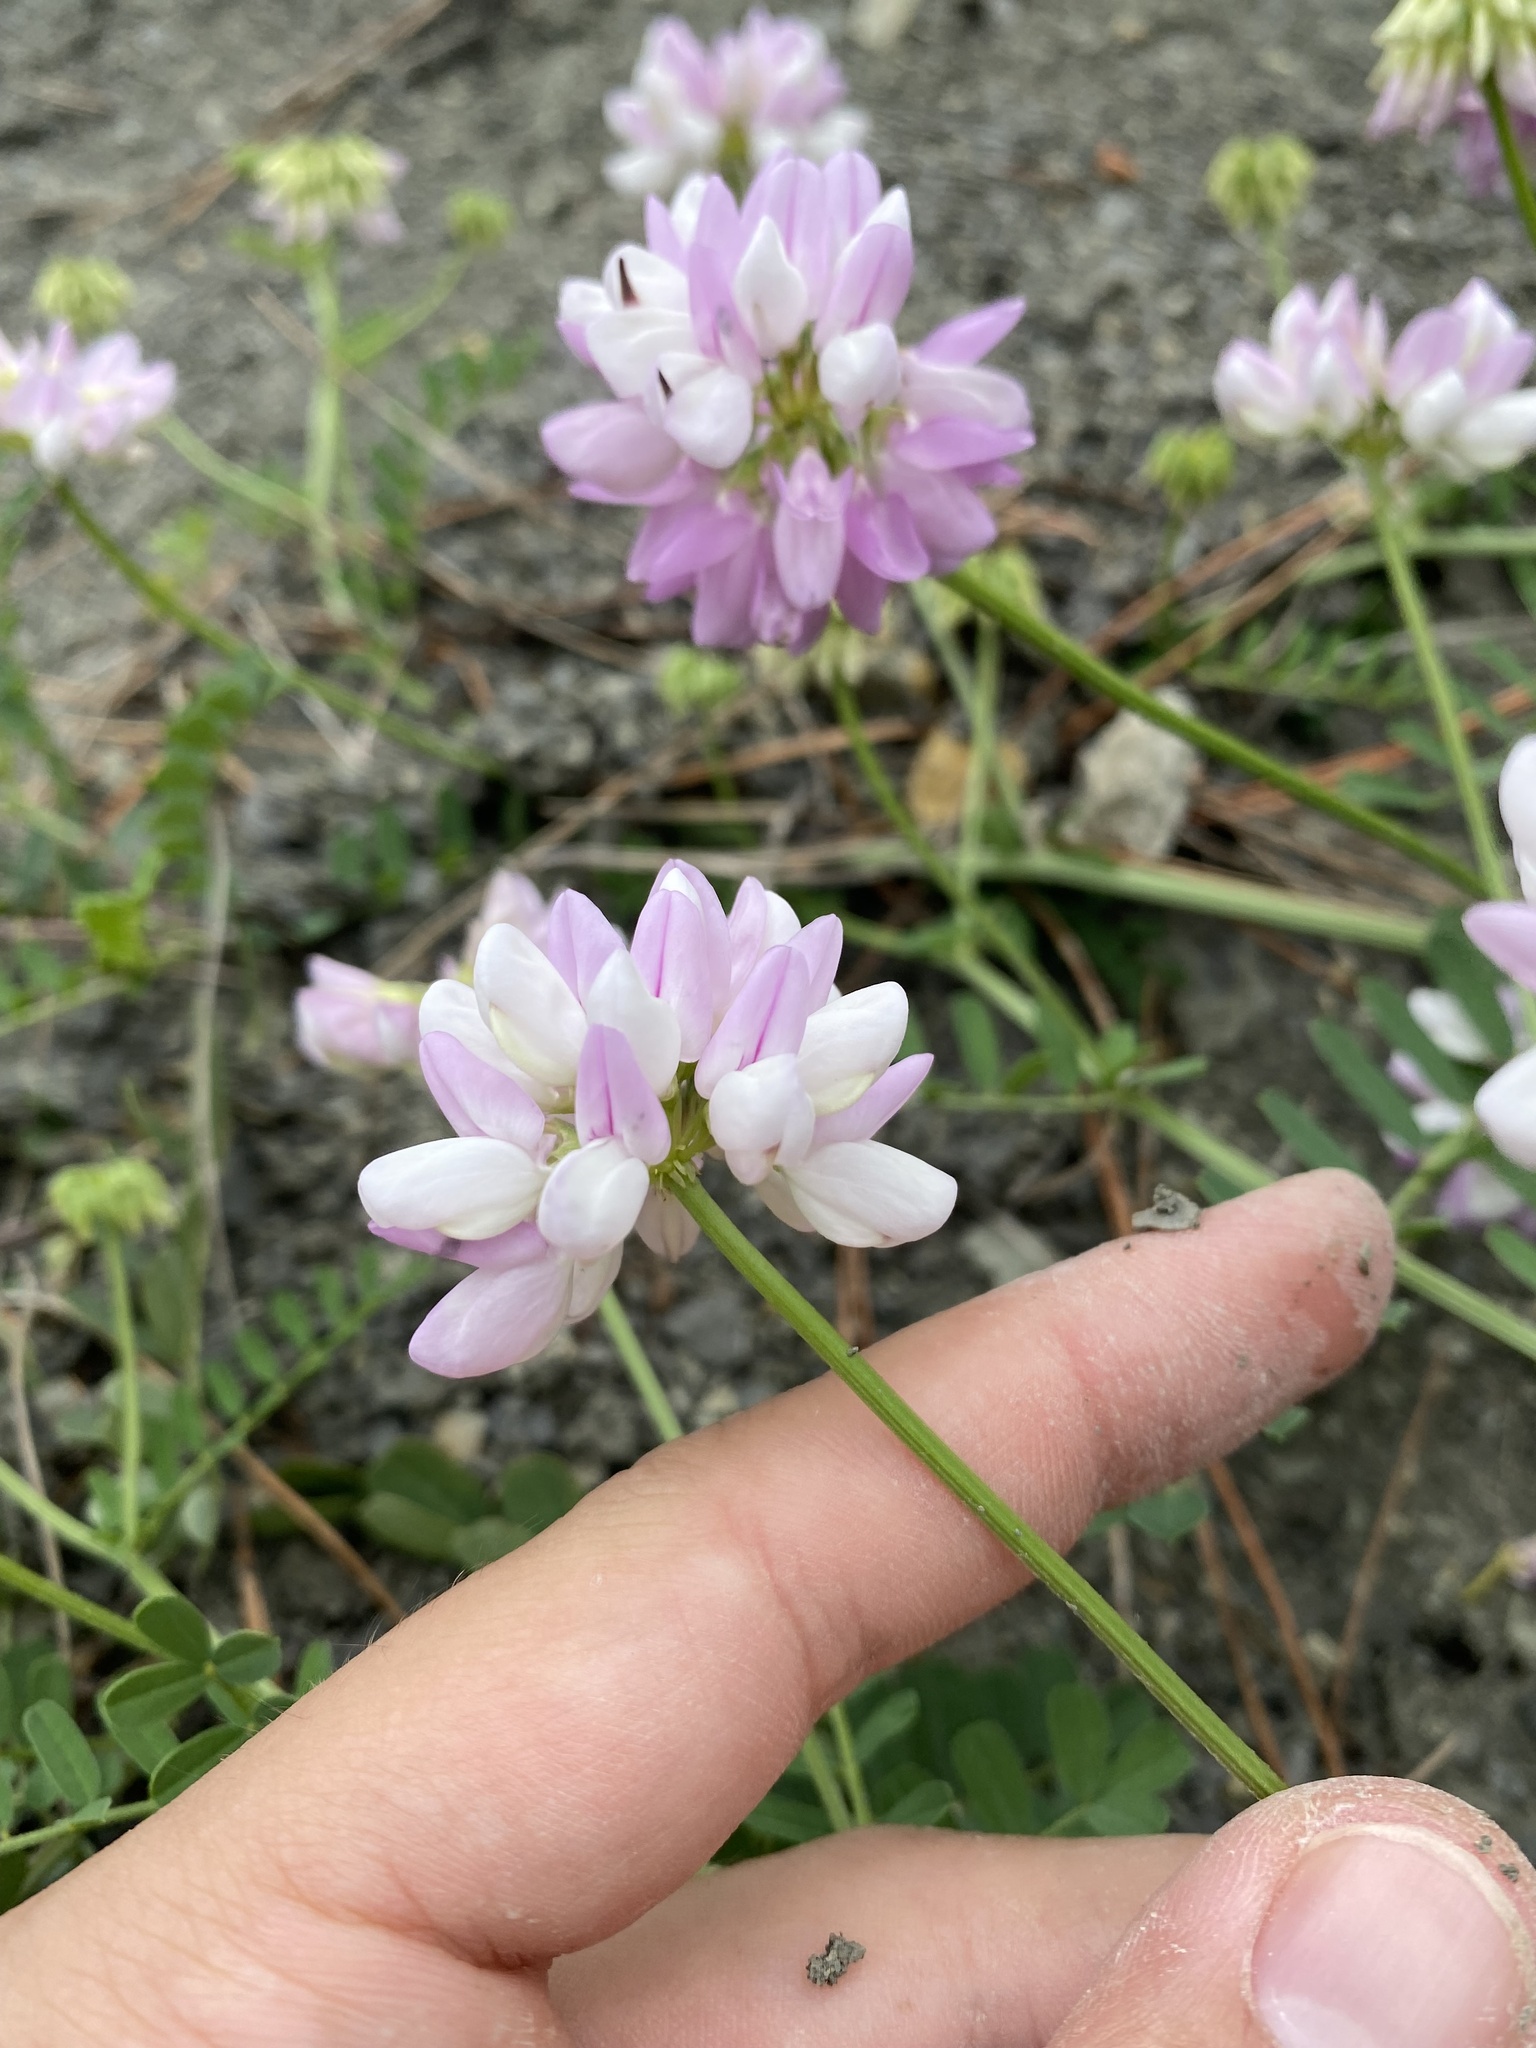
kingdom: Plantae
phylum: Tracheophyta
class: Magnoliopsida
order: Fabales
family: Fabaceae
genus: Coronilla
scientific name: Coronilla varia
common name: Crownvetch
